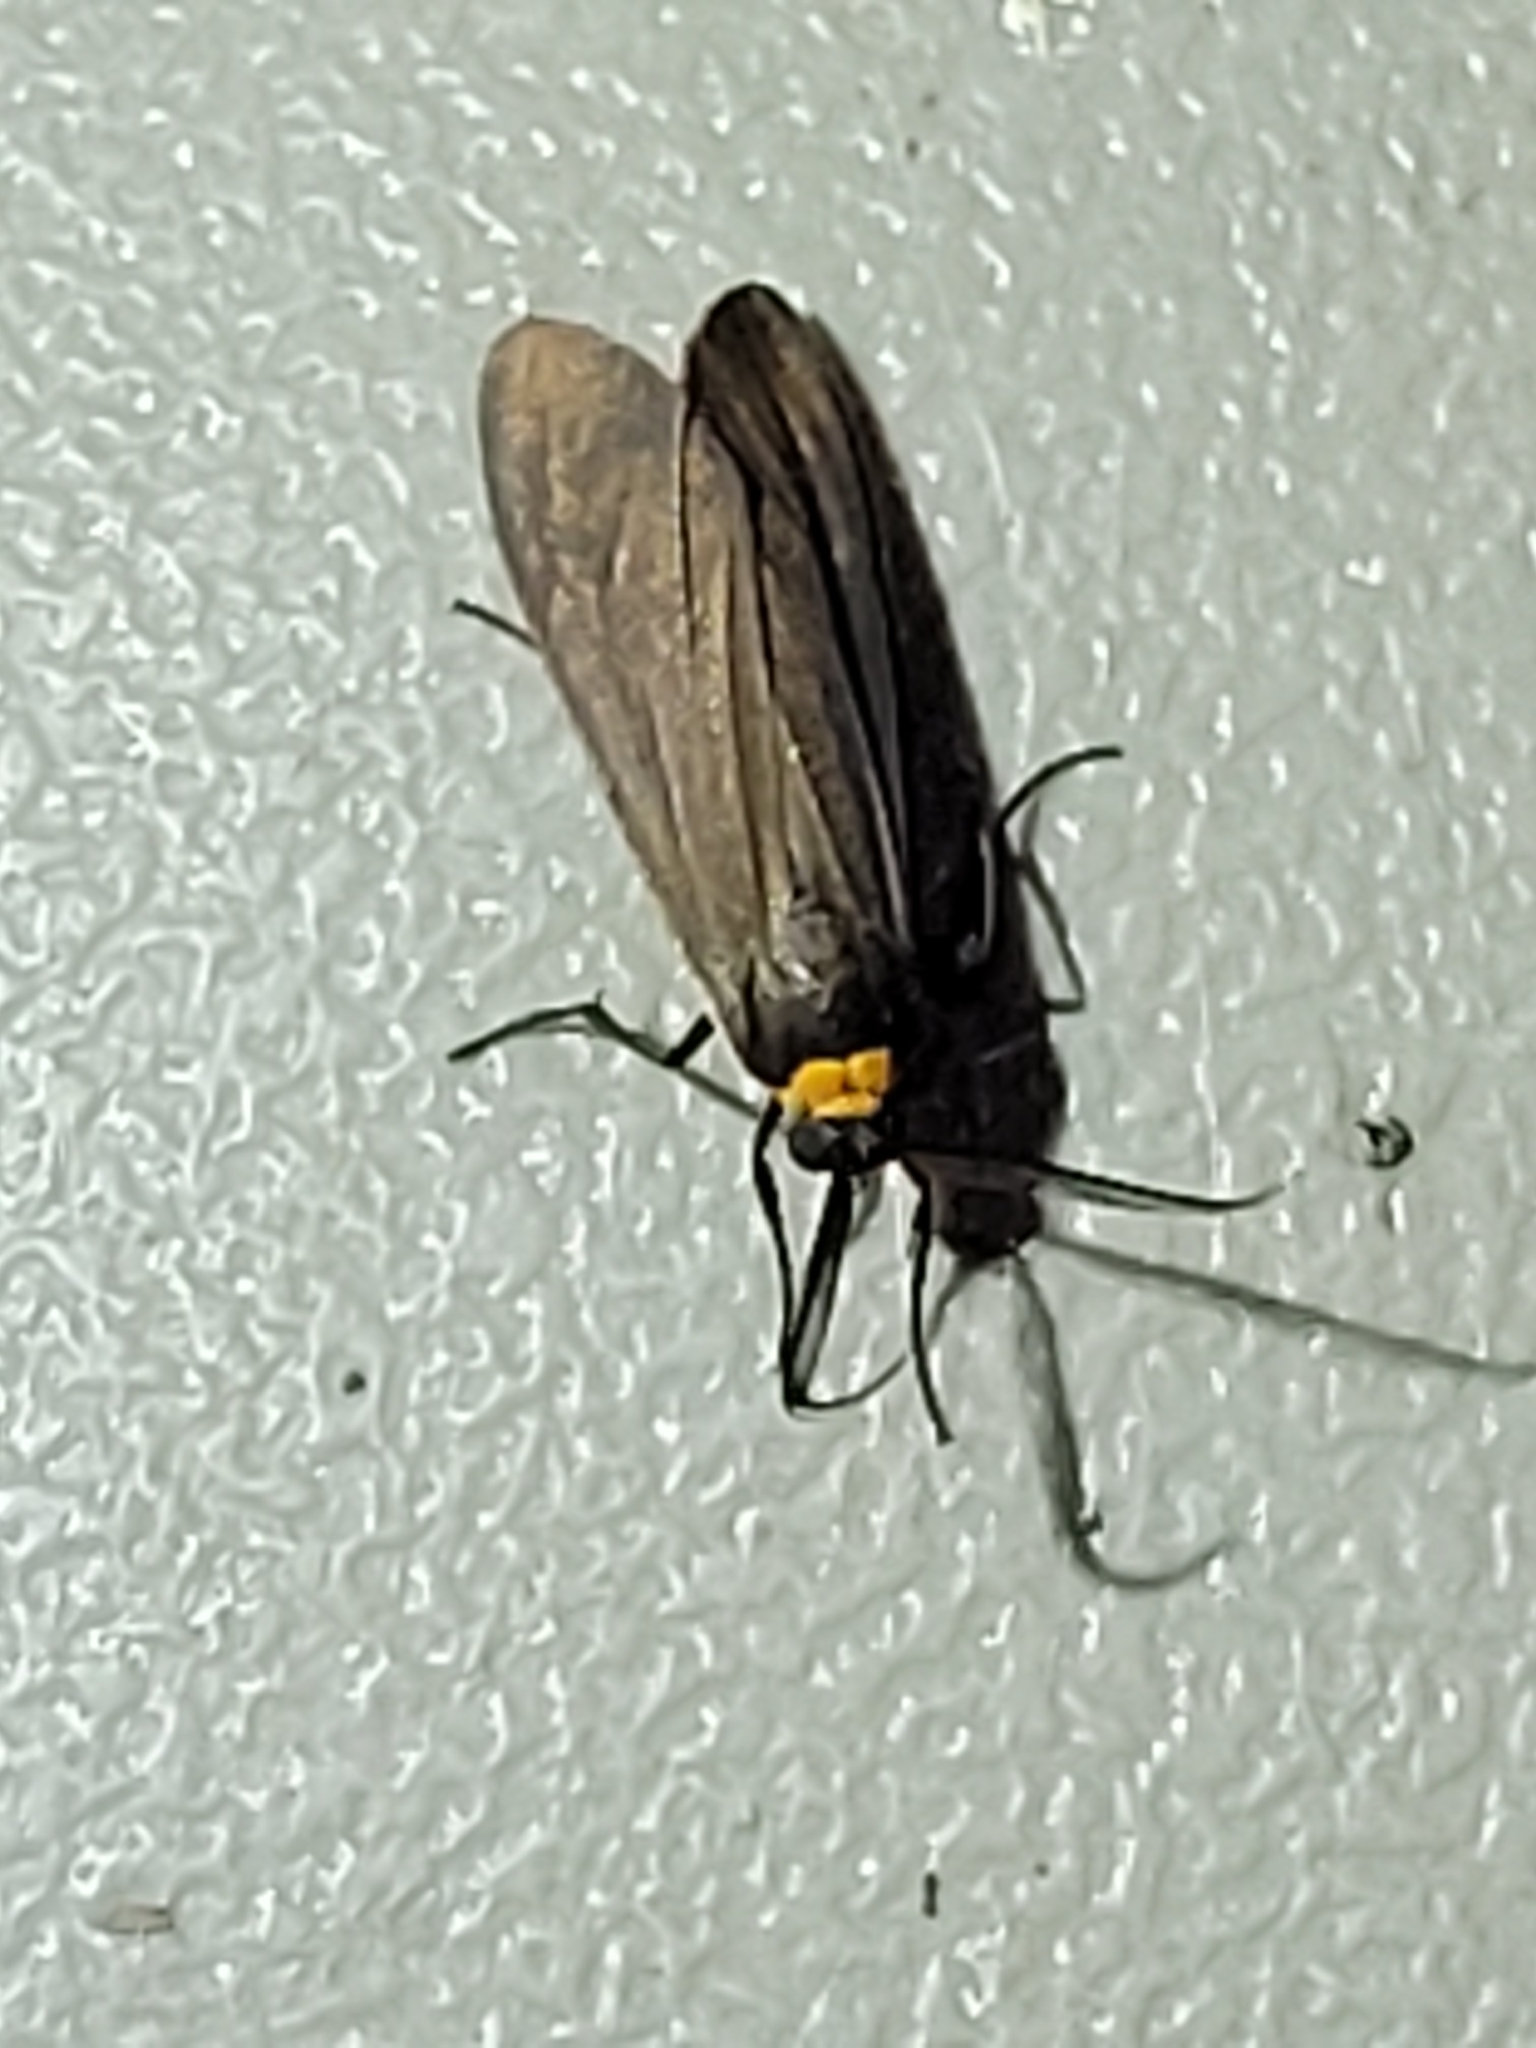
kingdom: Animalia
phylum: Arthropoda
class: Insecta
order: Lepidoptera
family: Erebidae
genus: Cisseps
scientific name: Cisseps fulvicollis
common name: Yellow-collared scape moth
